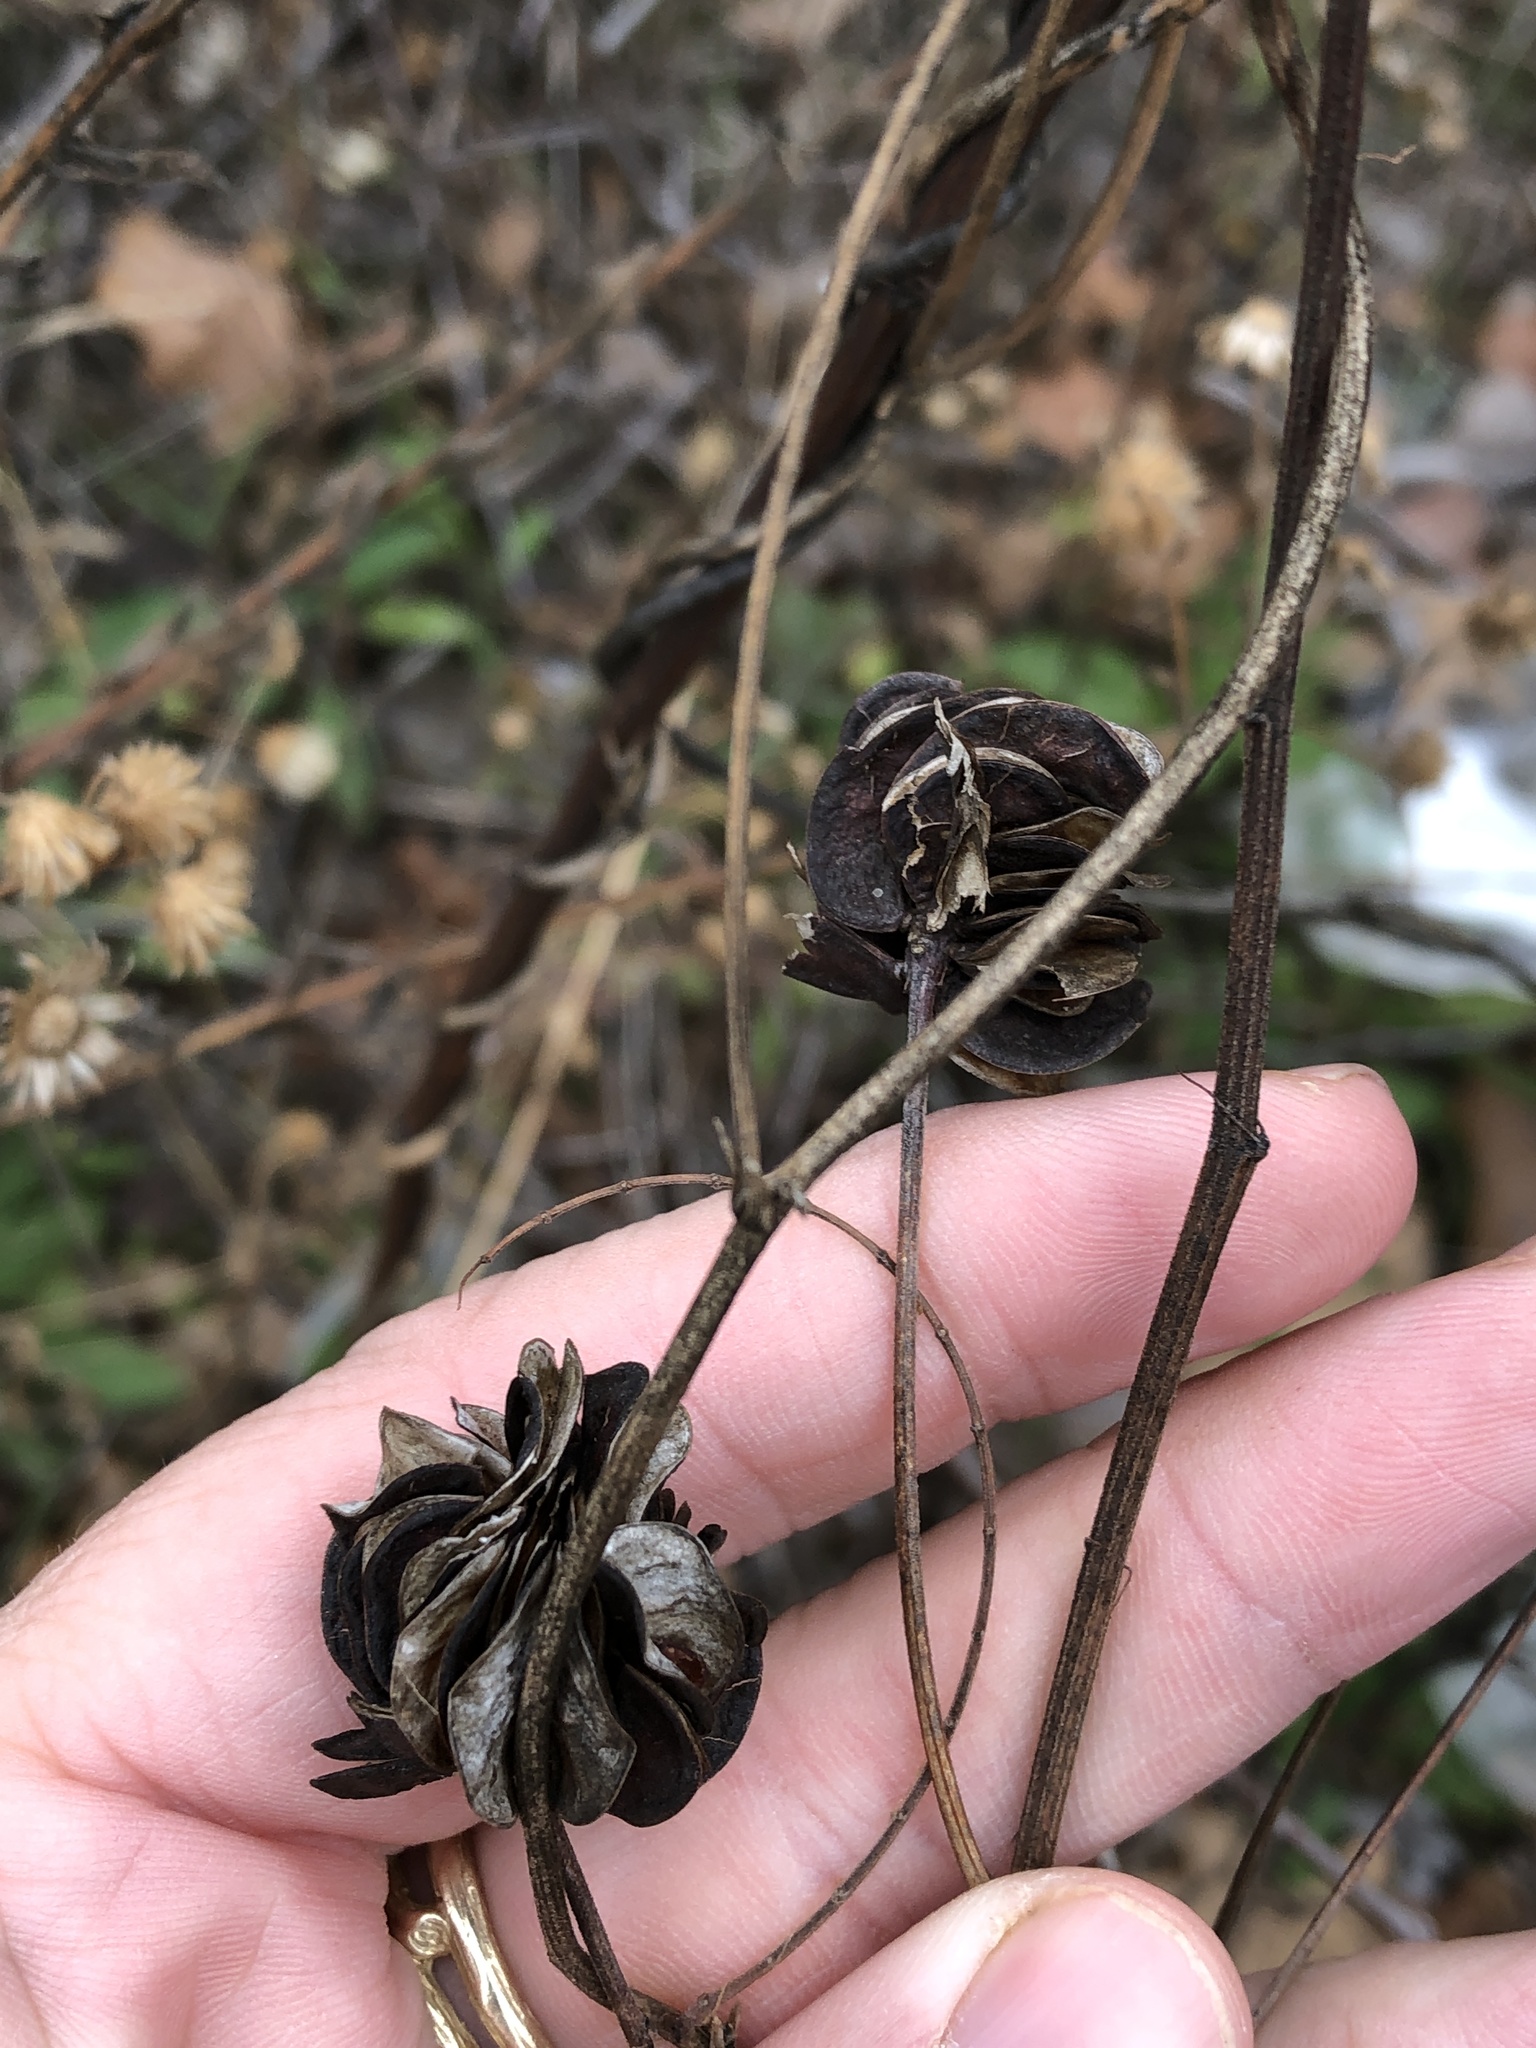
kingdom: Plantae
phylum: Tracheophyta
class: Magnoliopsida
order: Fabales
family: Fabaceae
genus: Desmanthus
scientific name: Desmanthus illinoensis
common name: Illinois bundle-flower
